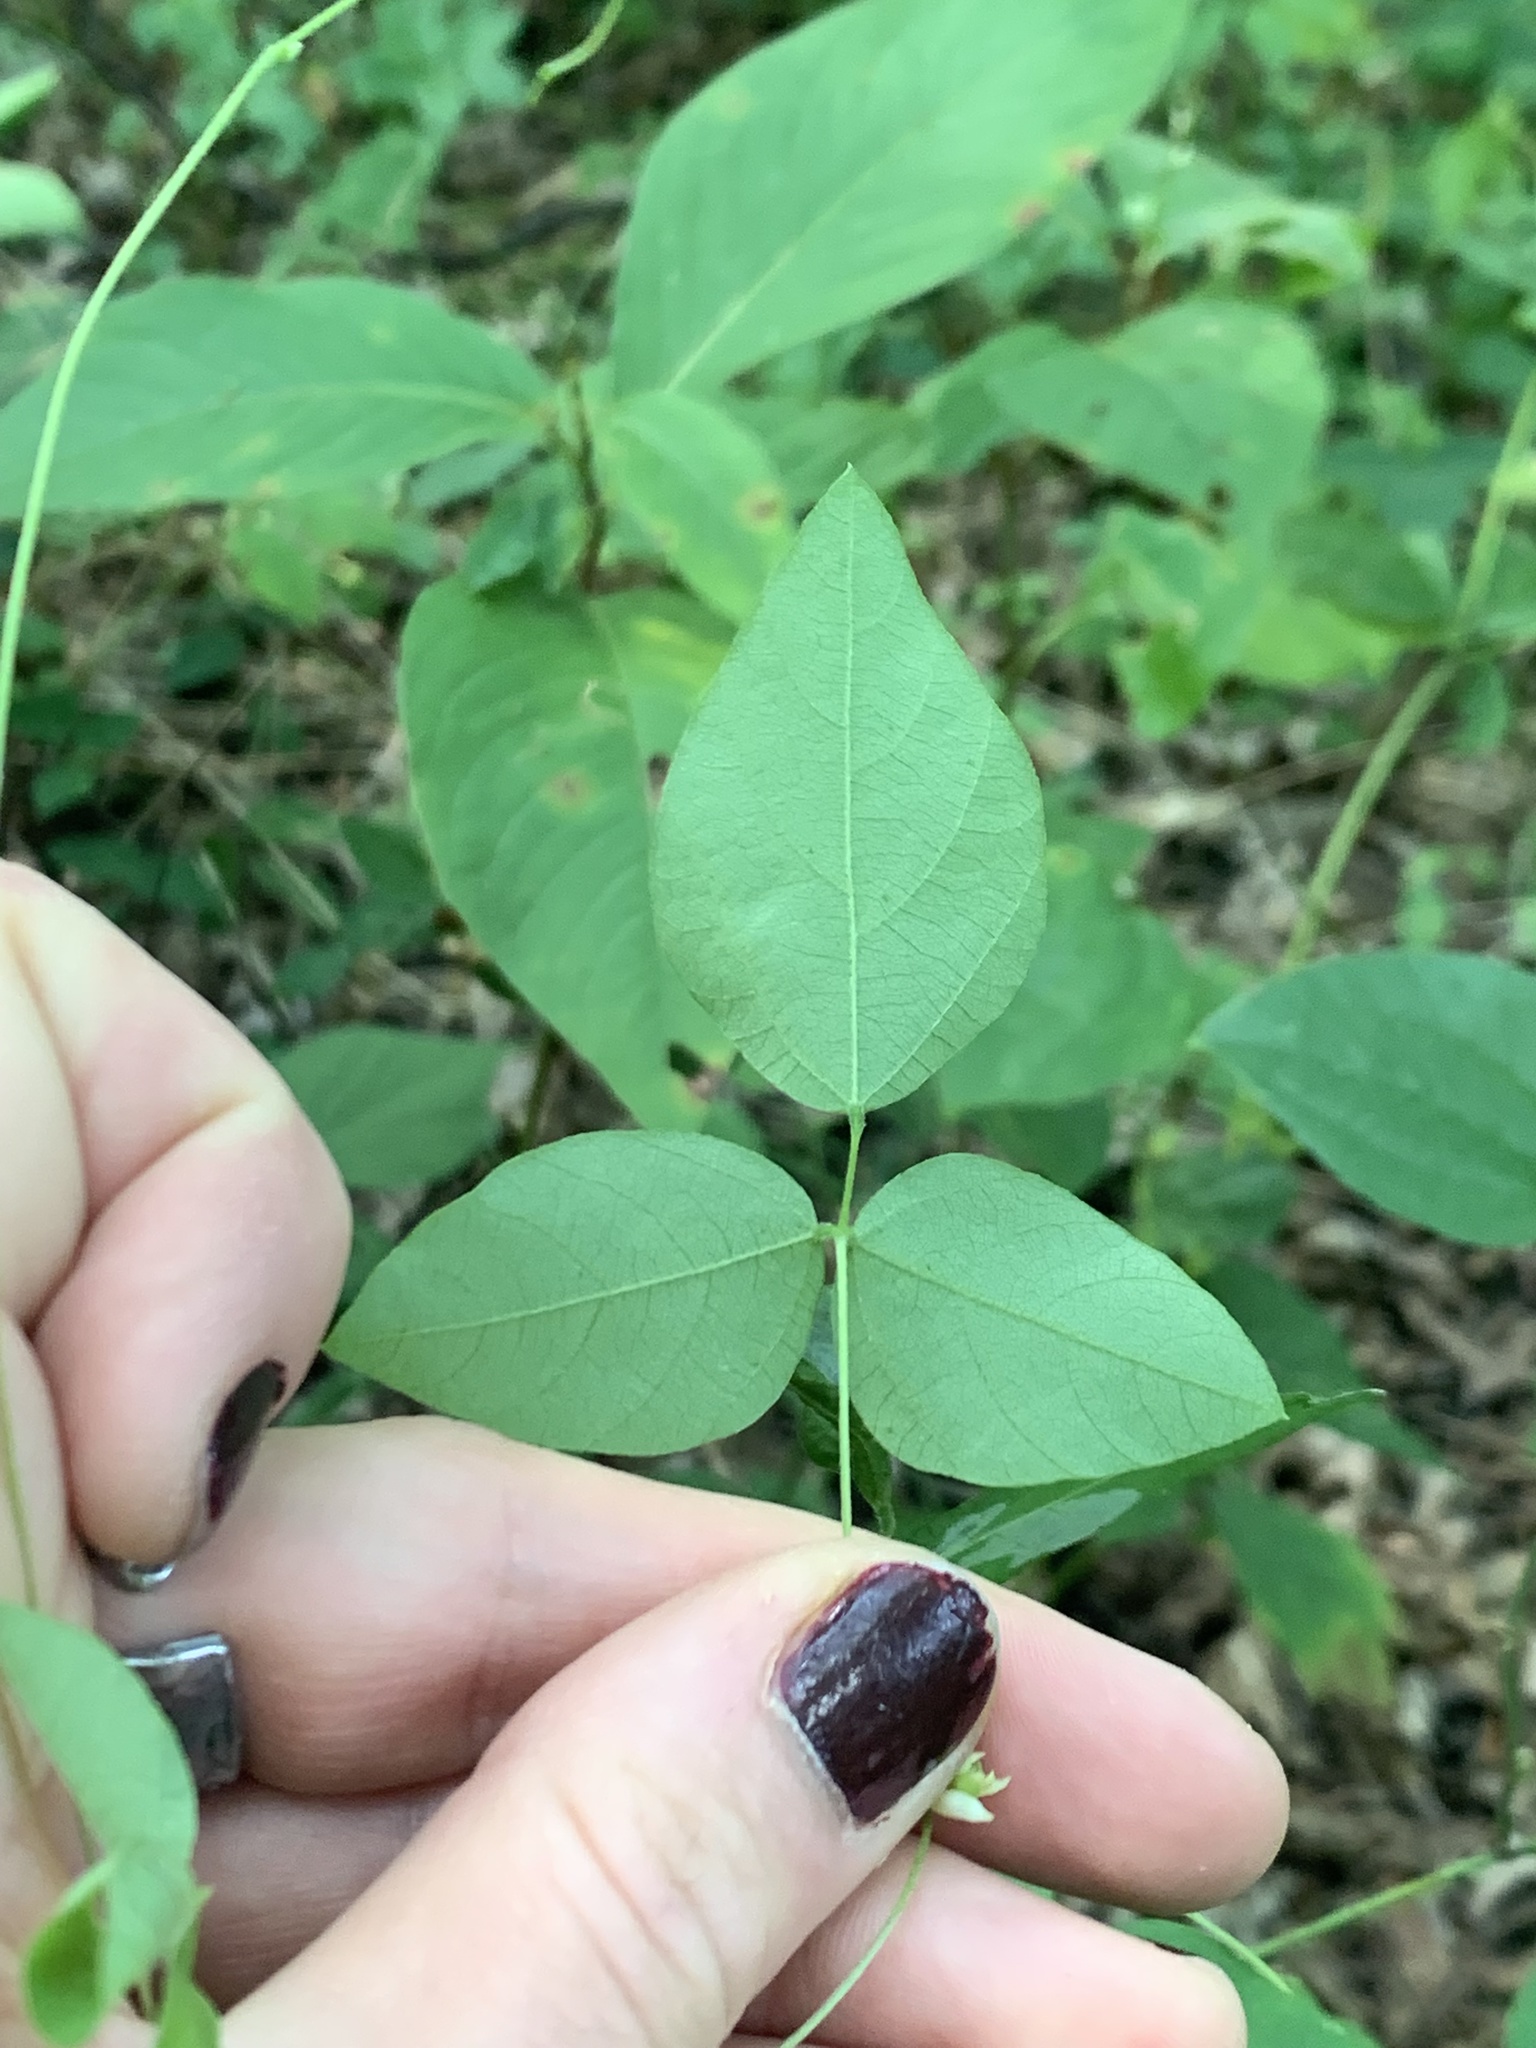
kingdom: Plantae
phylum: Tracheophyta
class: Magnoliopsida
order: Fabales
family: Fabaceae
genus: Amphicarpaea
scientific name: Amphicarpaea bracteata
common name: American hog peanut
